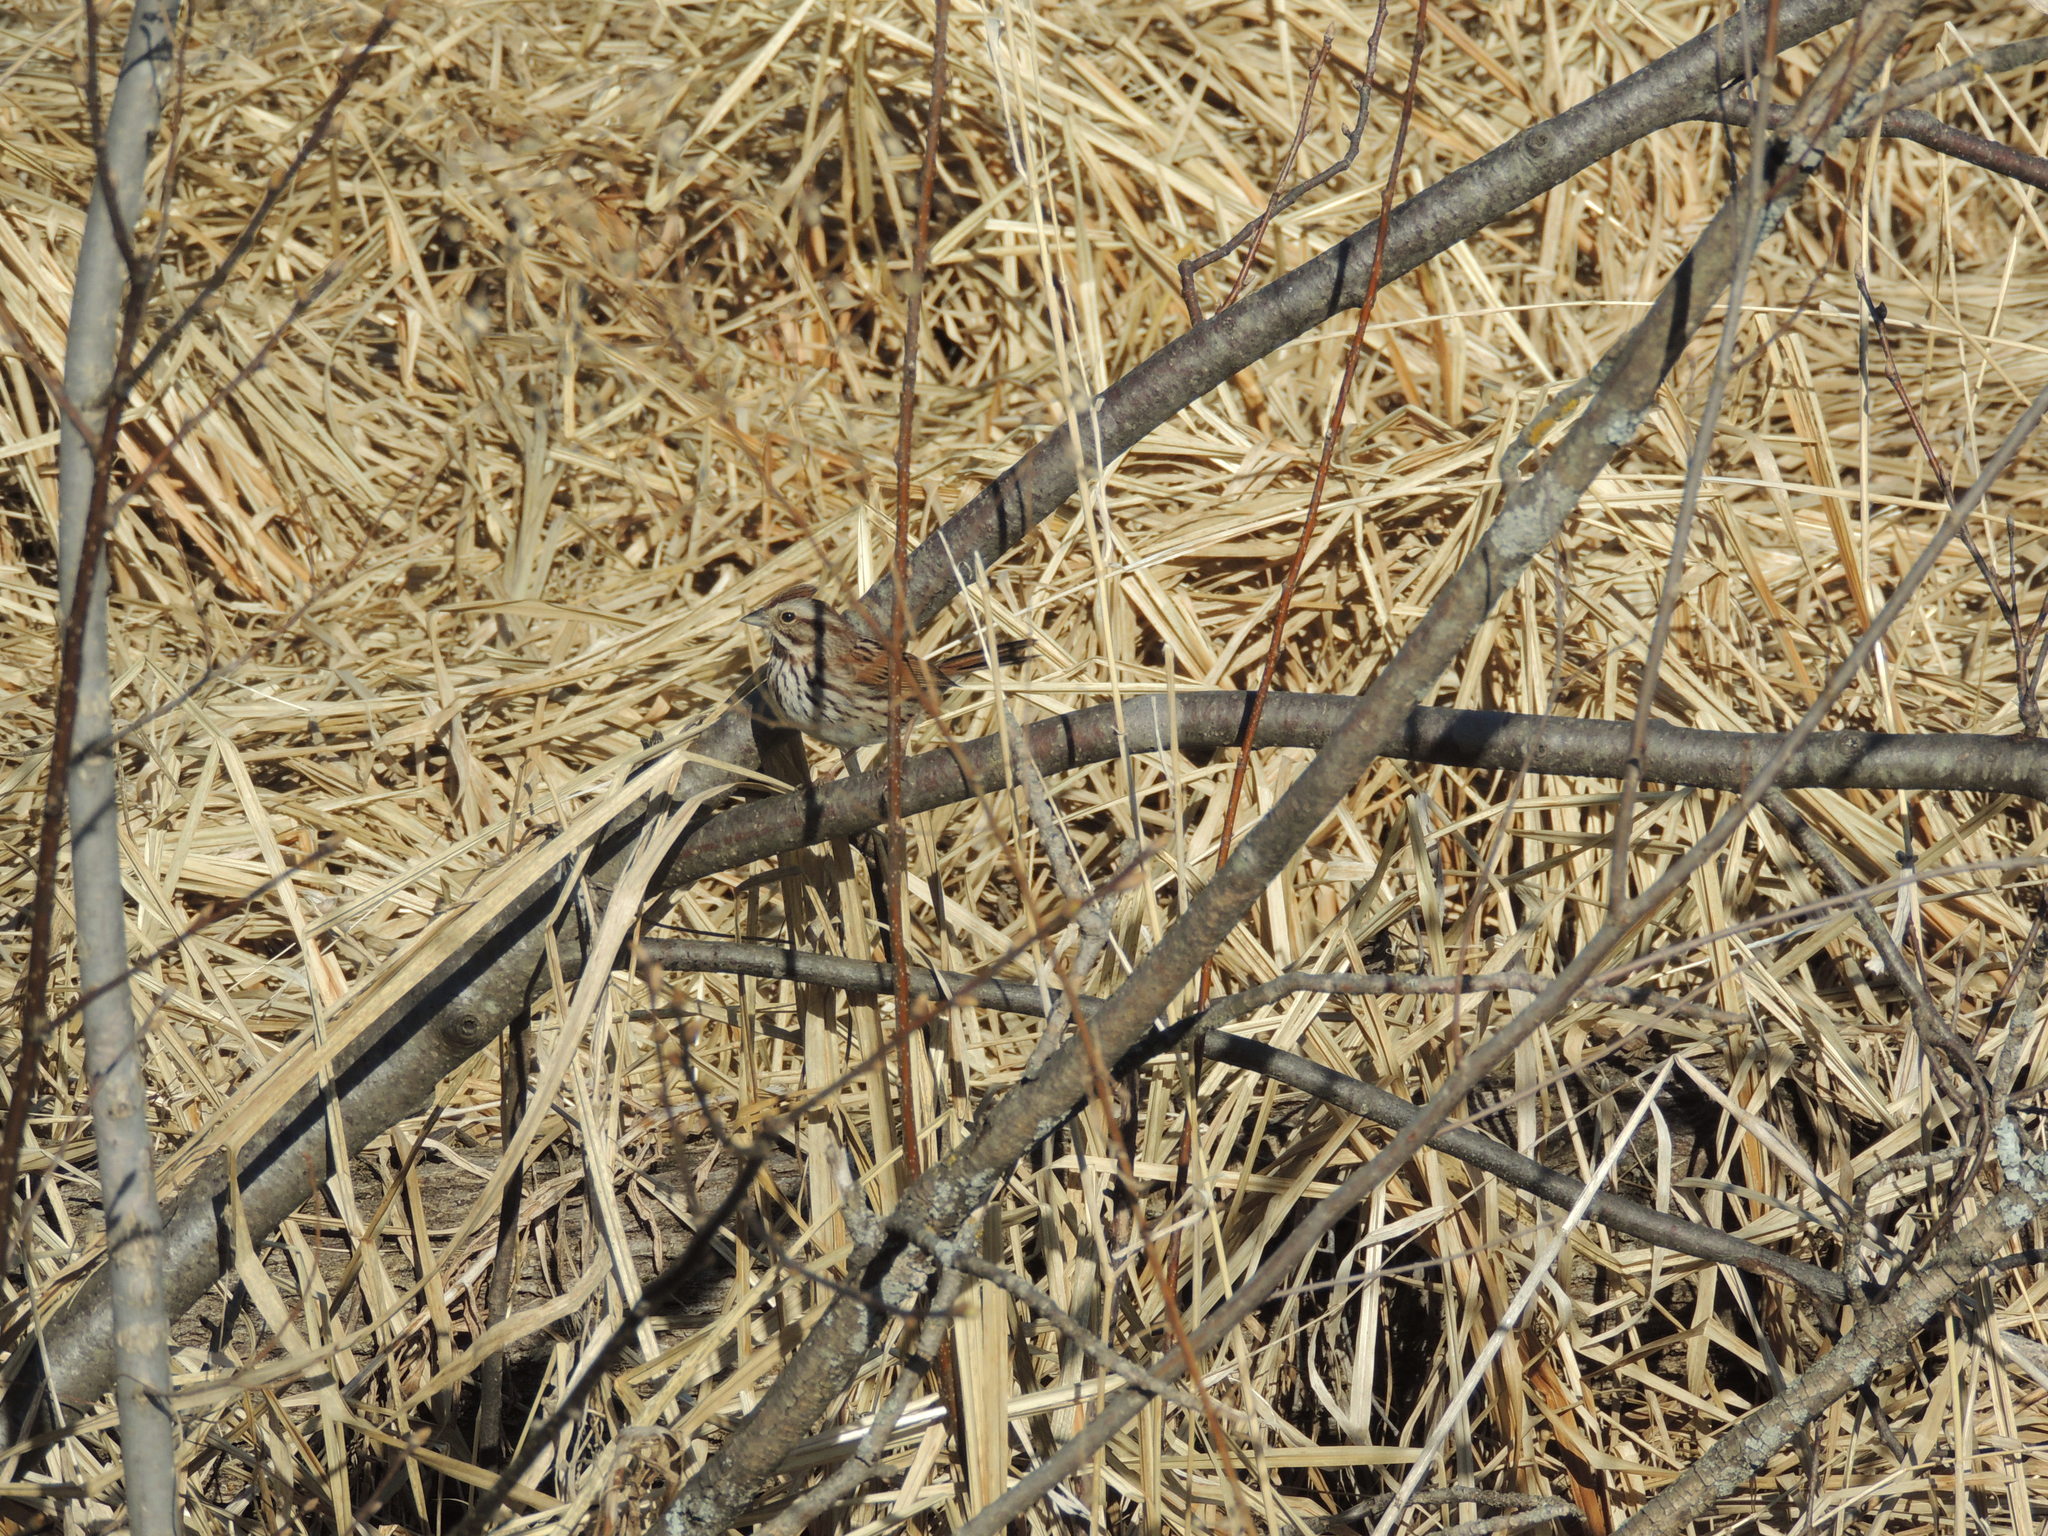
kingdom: Animalia
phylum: Chordata
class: Aves
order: Passeriformes
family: Passerellidae
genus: Melospiza
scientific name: Melospiza melodia
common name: Song sparrow
